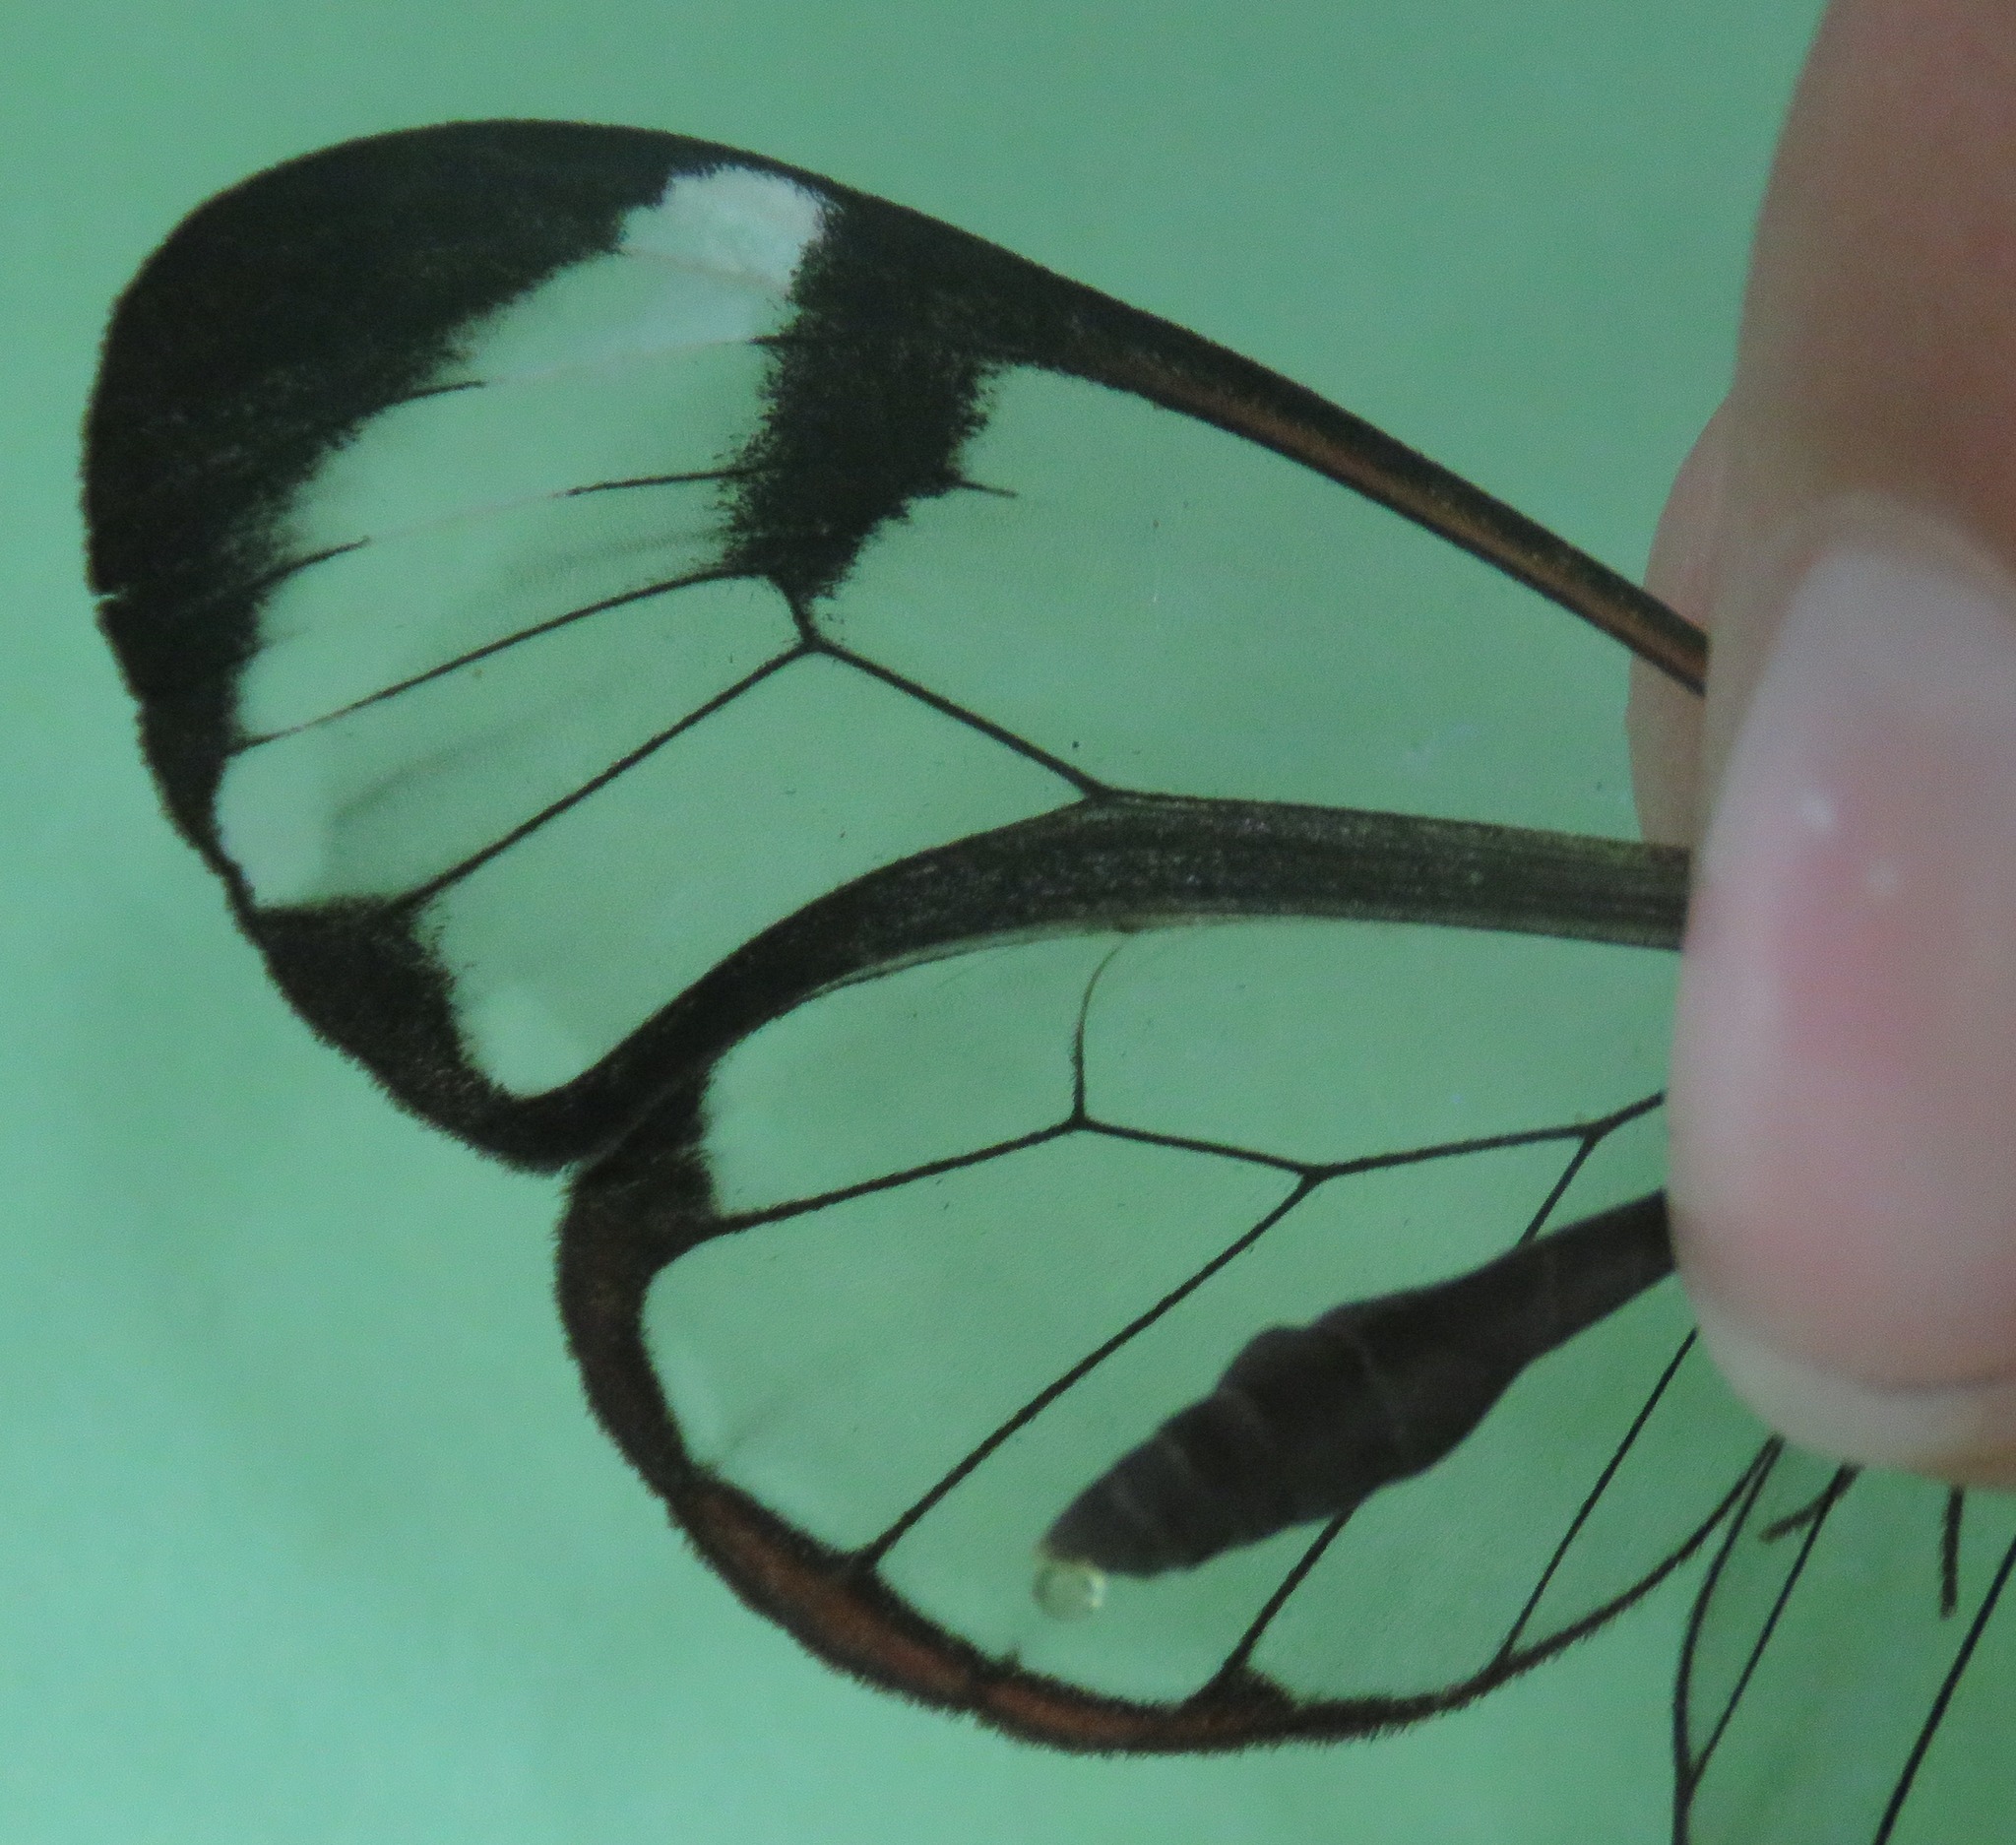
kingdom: Animalia
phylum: Arthropoda
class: Insecta
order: Lepidoptera
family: Nymphalidae
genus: Greta
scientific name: Greta morgane
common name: Thick-tipped greta
